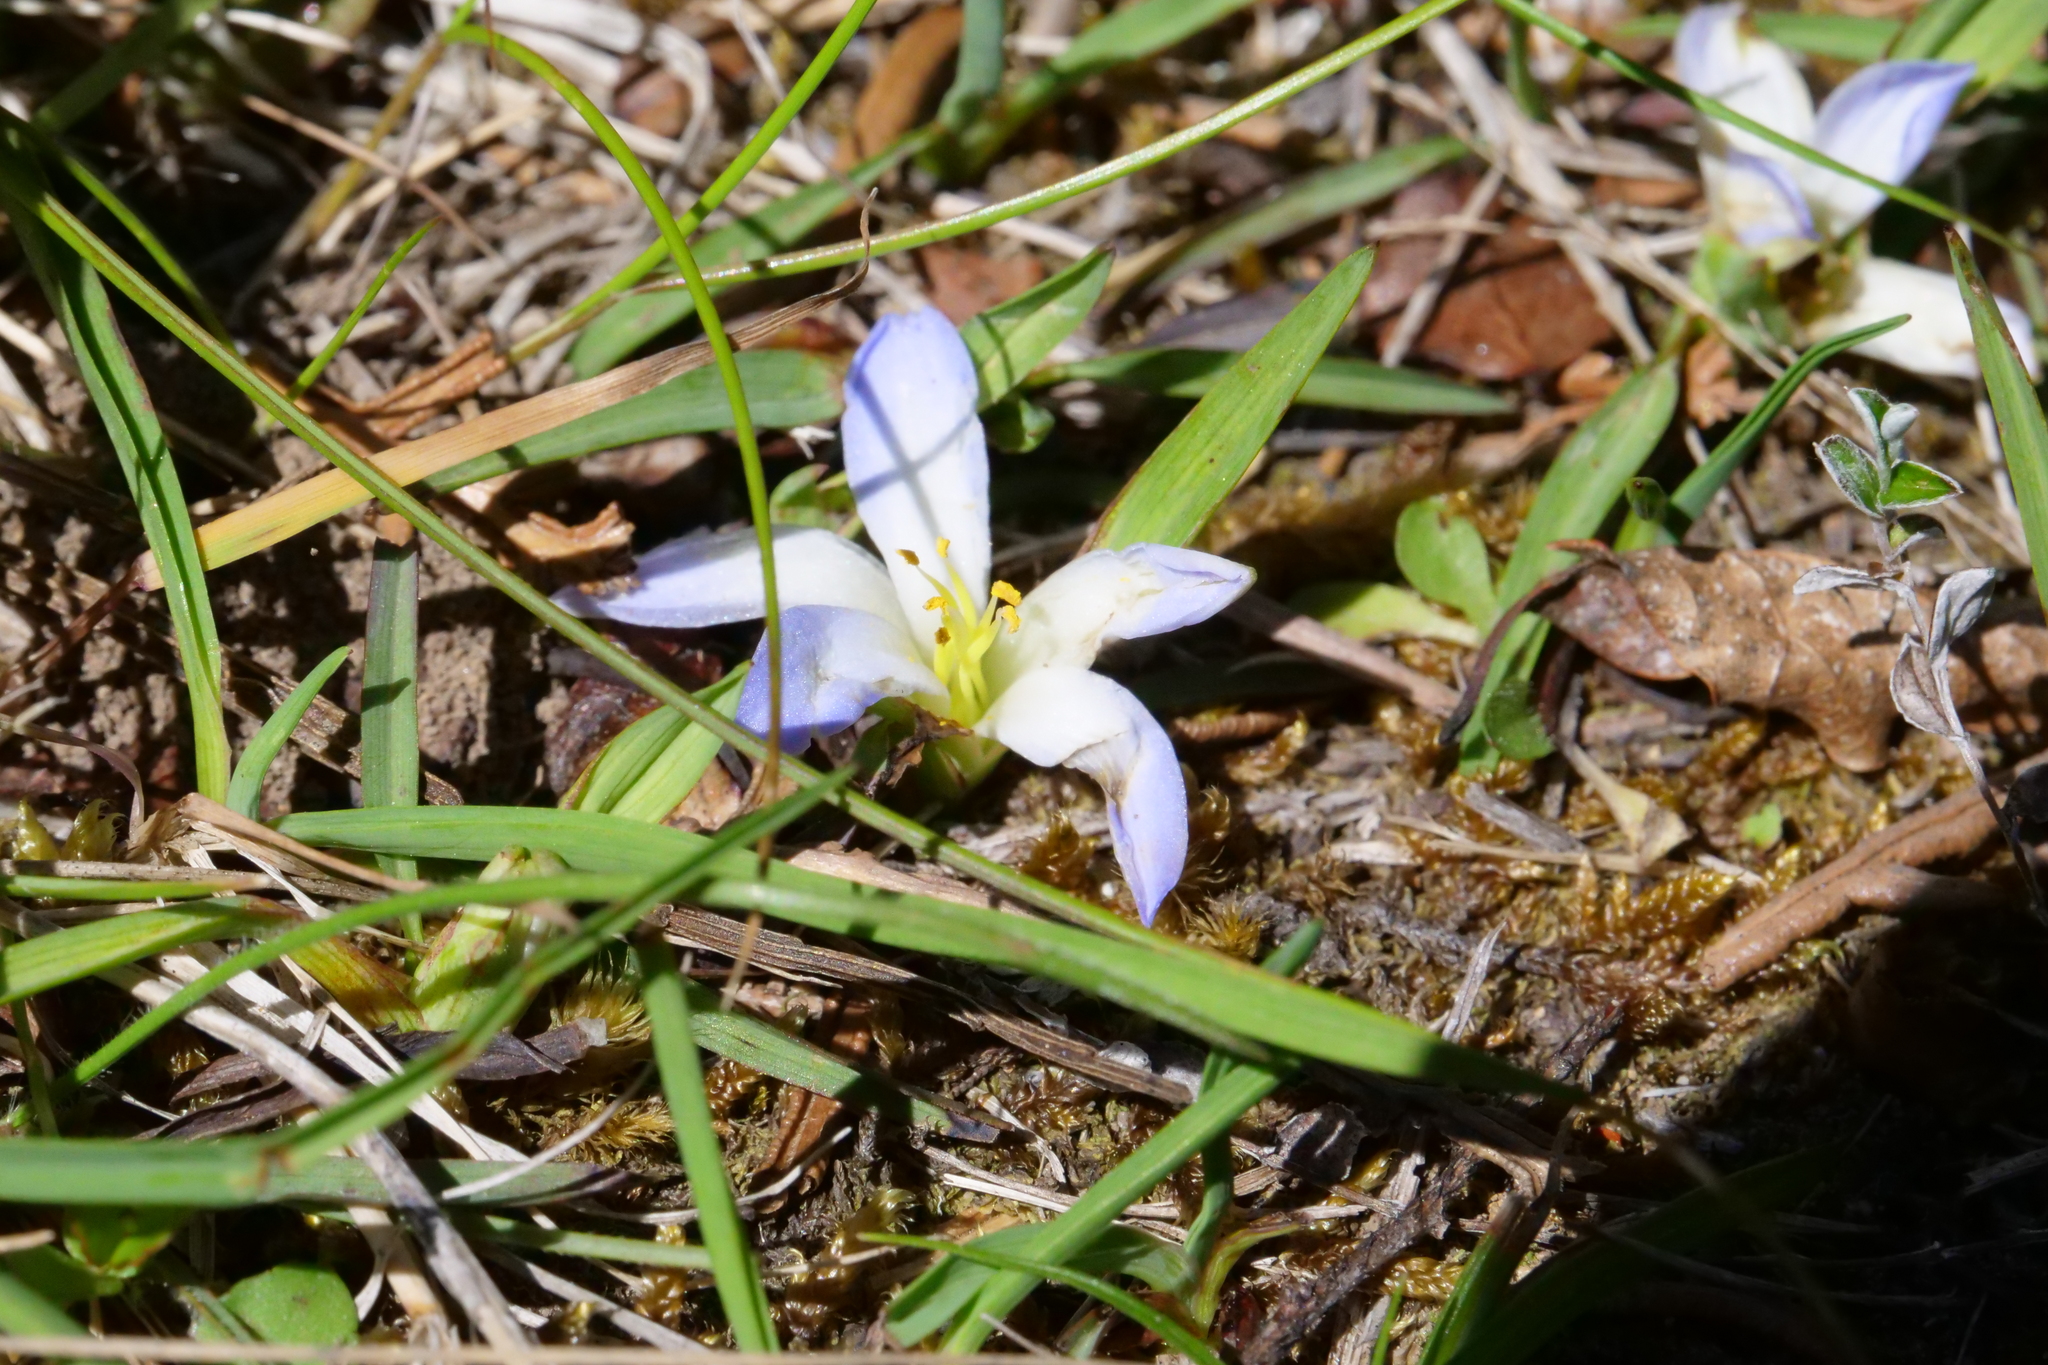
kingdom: Plantae
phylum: Tracheophyta
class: Liliopsida
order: Asparagales
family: Asphodelaceae
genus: Herpolirion
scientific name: Herpolirion novae-zelandiae
